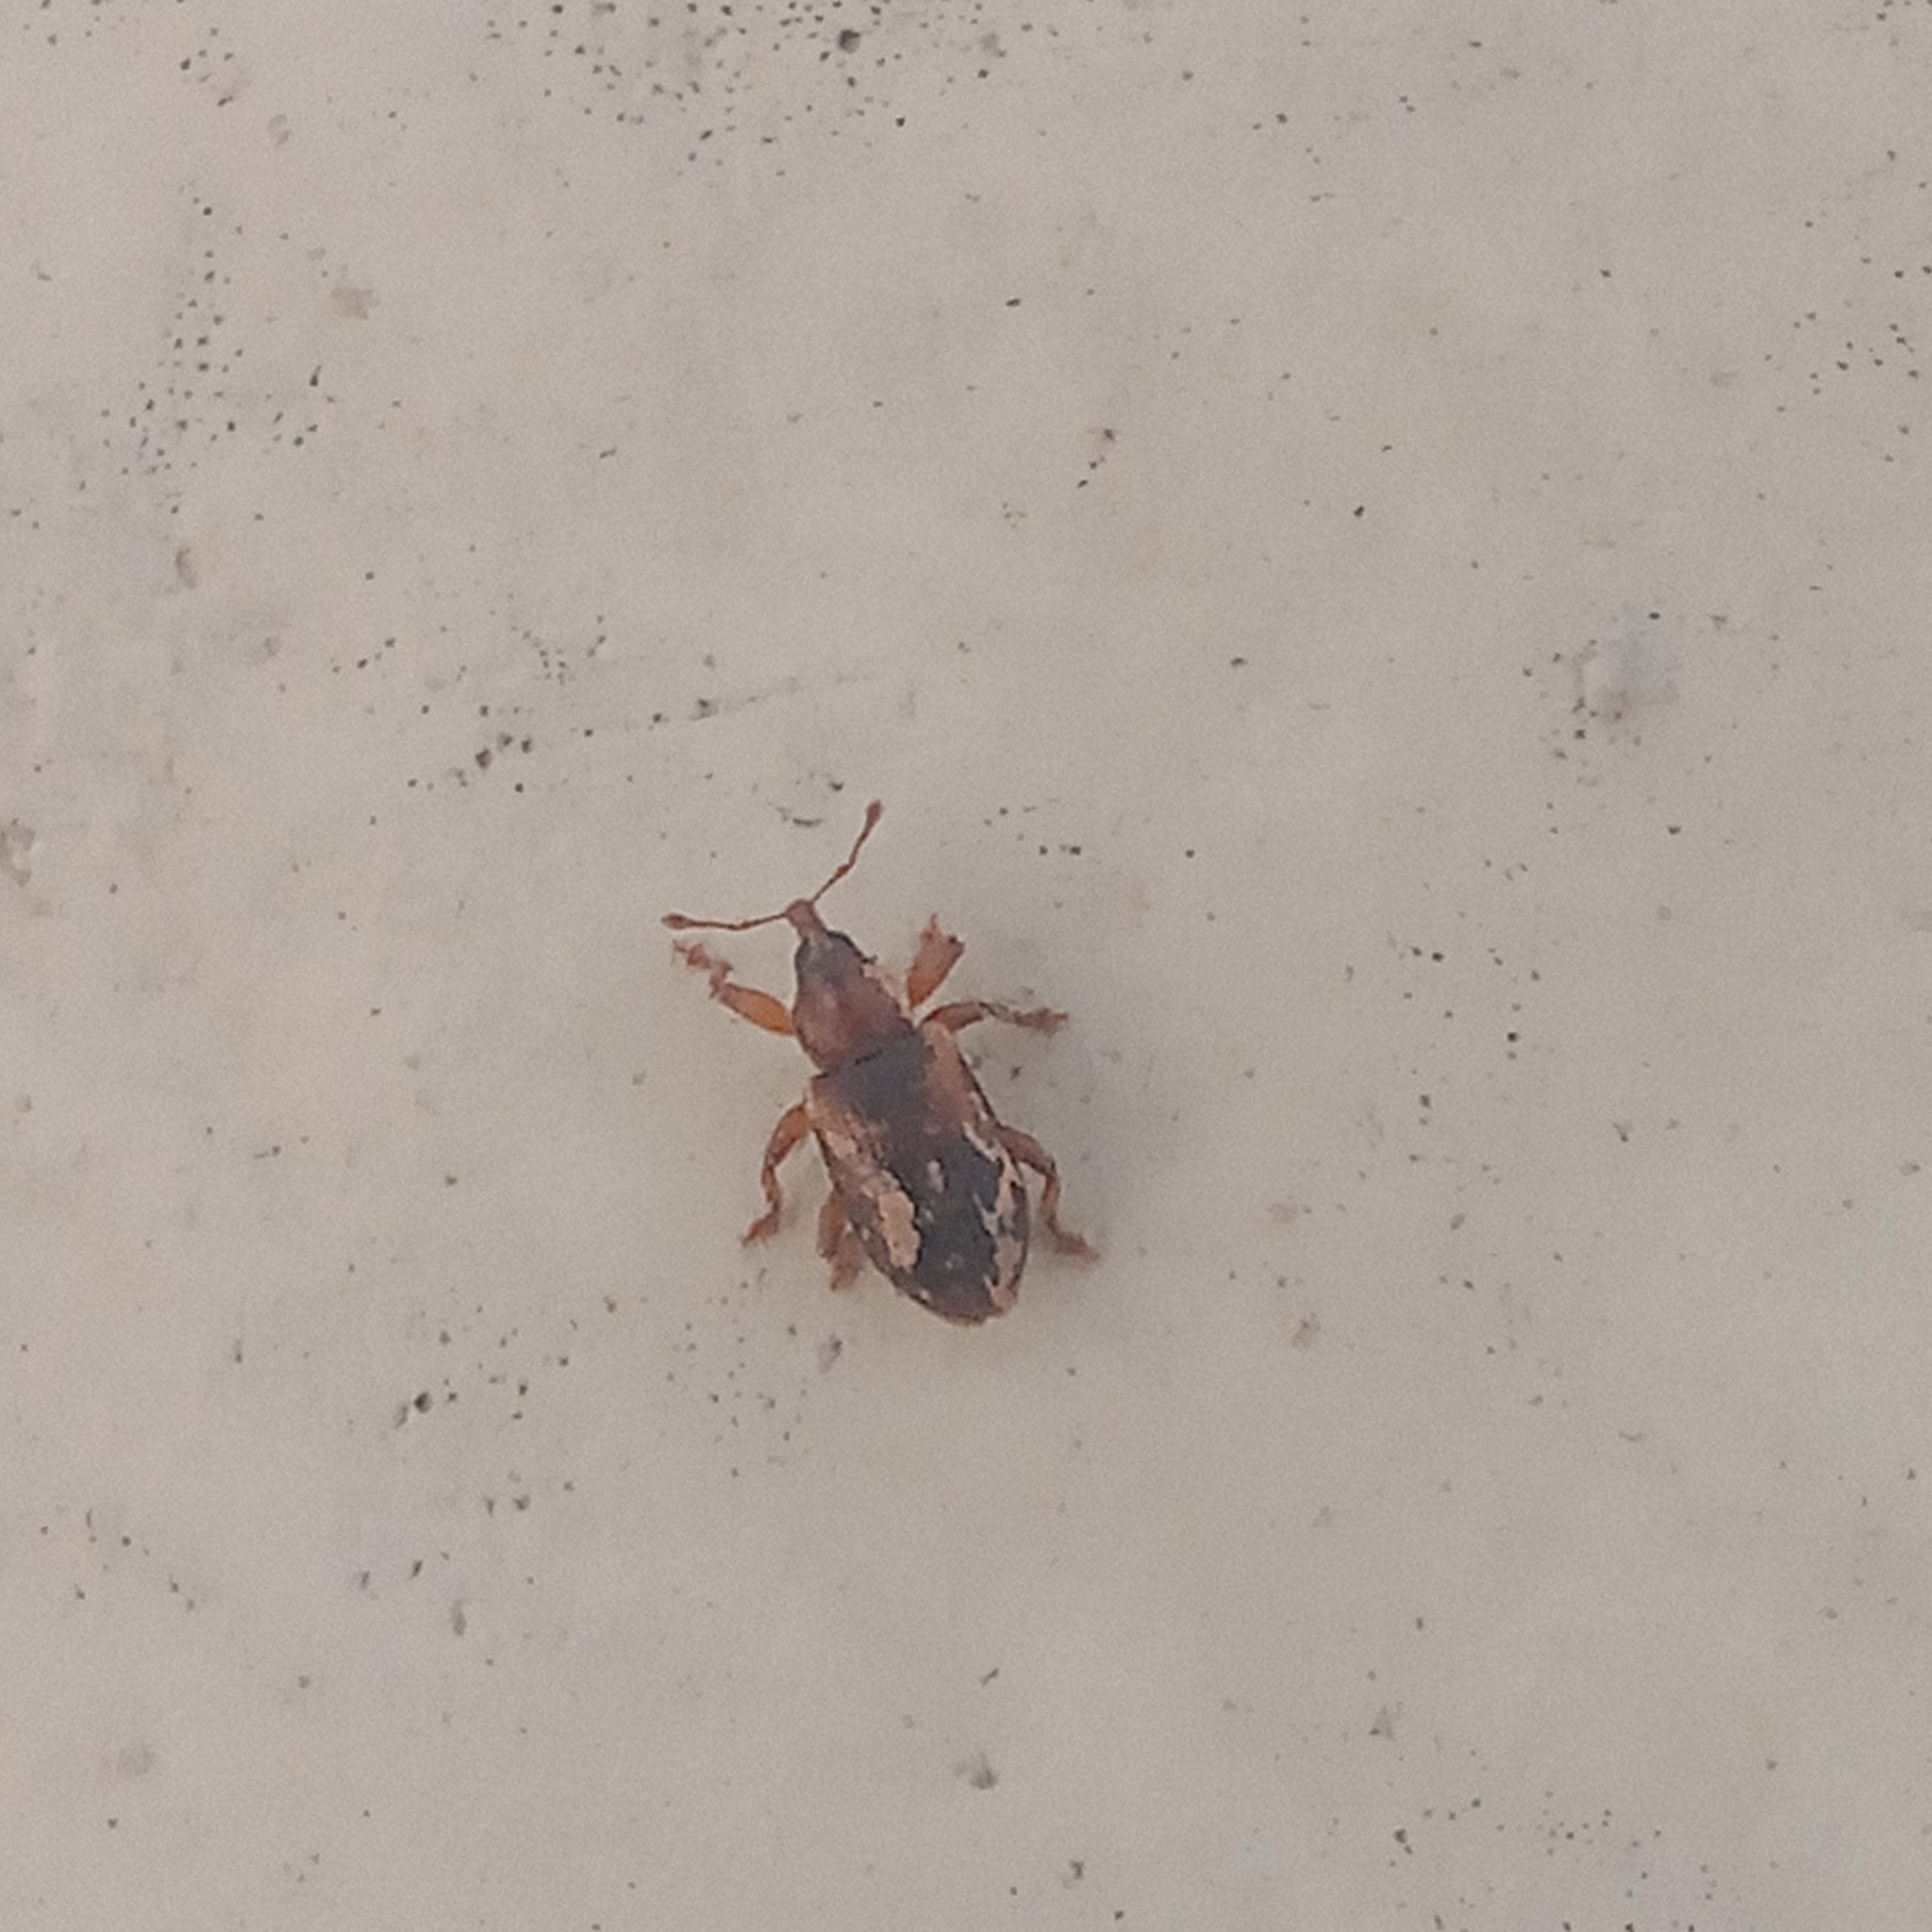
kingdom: Animalia
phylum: Arthropoda
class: Insecta
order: Coleoptera
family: Brachyceridae
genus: Erirhinus
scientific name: Erirhinus nebulosus
